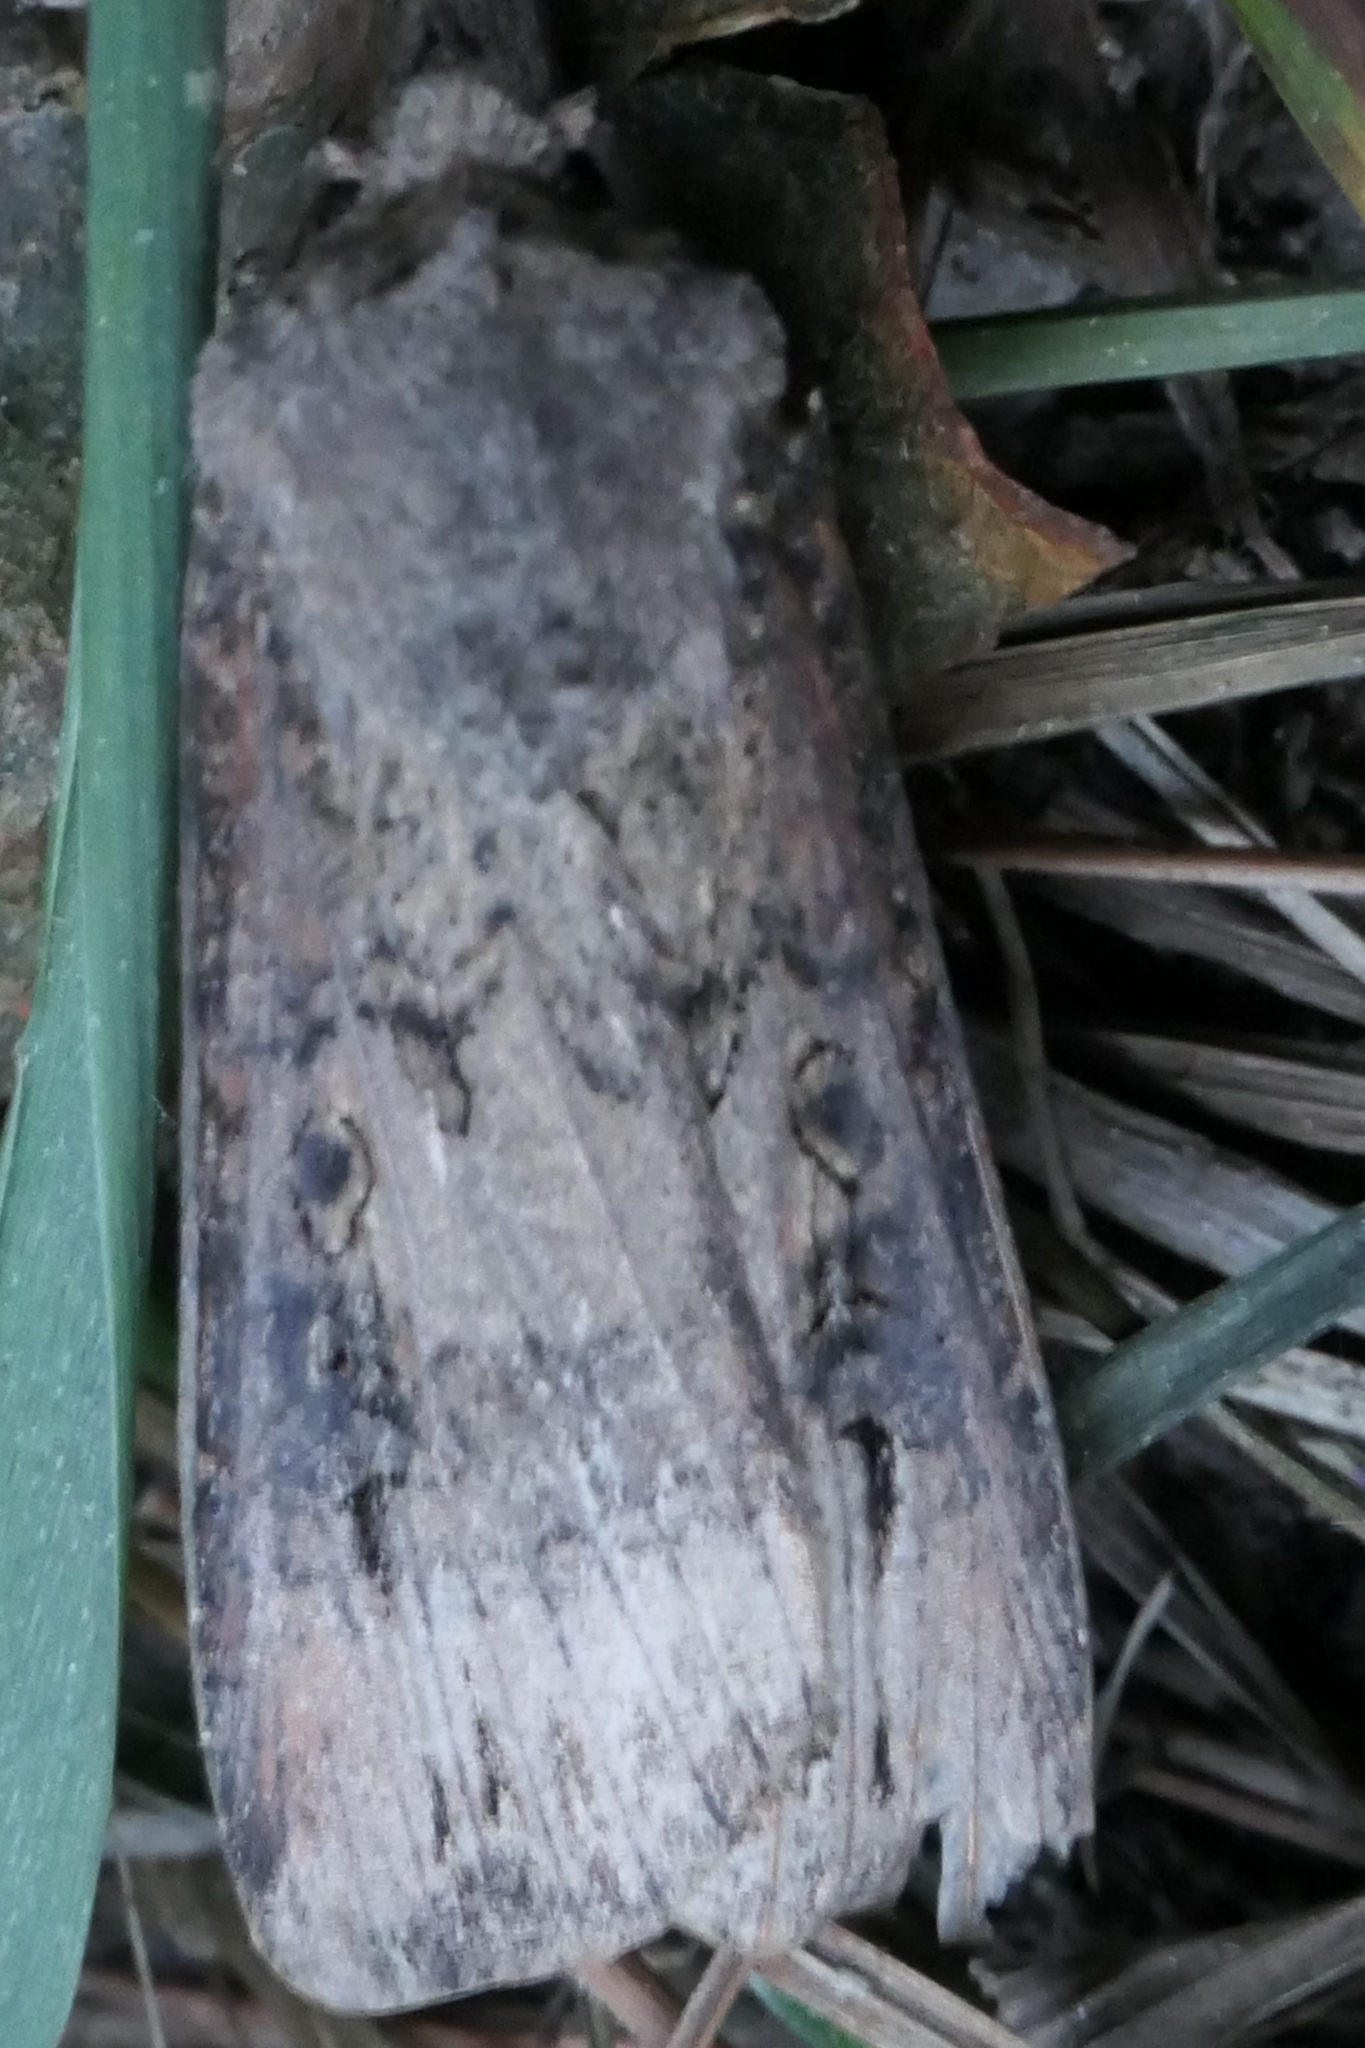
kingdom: Animalia
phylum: Arthropoda
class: Insecta
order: Lepidoptera
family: Noctuidae
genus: Agrotis
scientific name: Agrotis ipsilon
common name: Dark sword-grass
